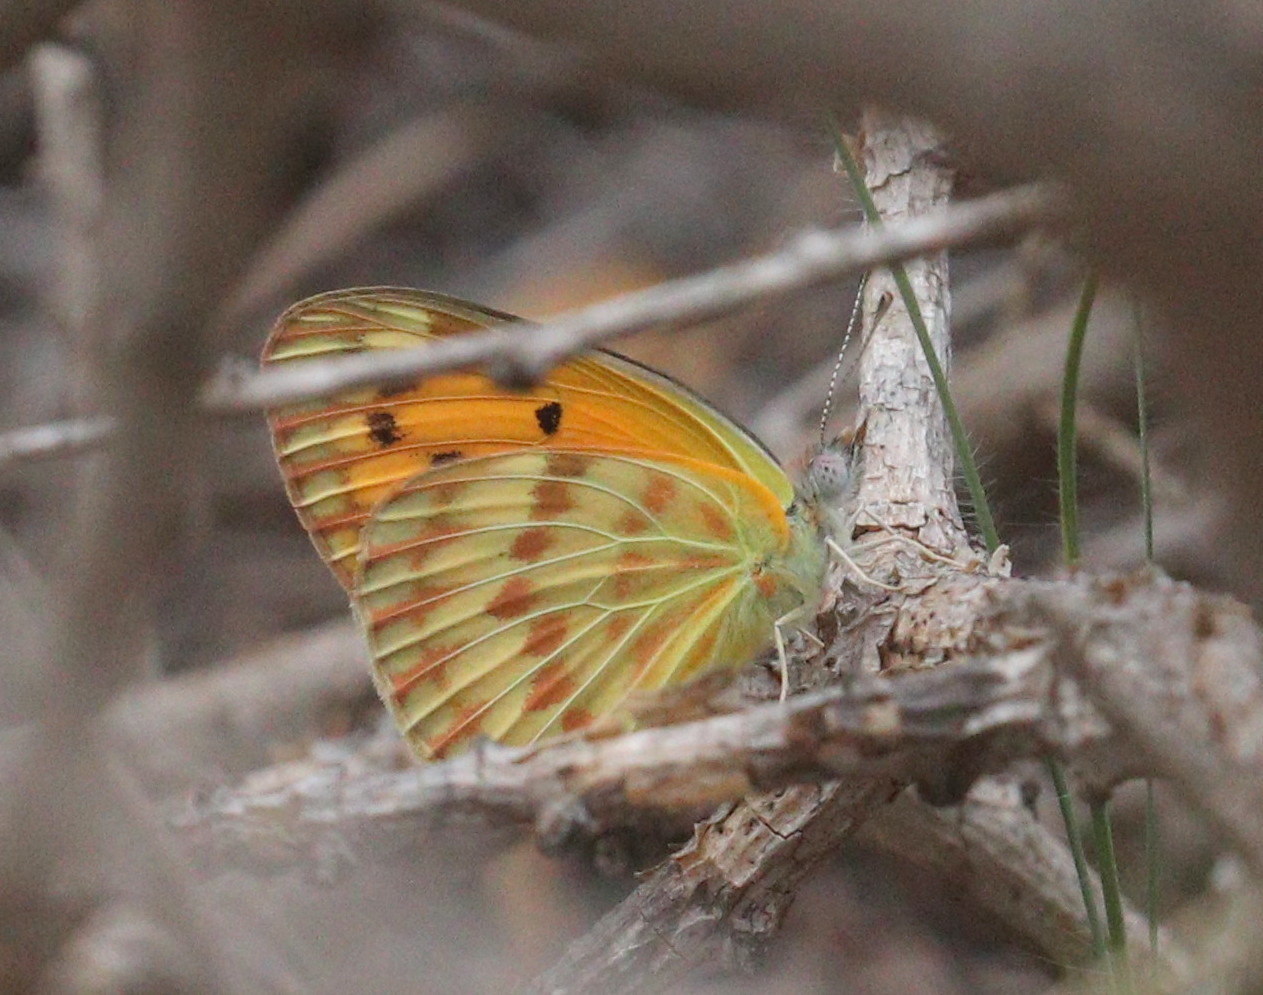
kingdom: Animalia
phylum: Arthropoda
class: Insecta
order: Lepidoptera
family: Pieridae
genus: Colotis
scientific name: Colotis chrysonome
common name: Golden arab
